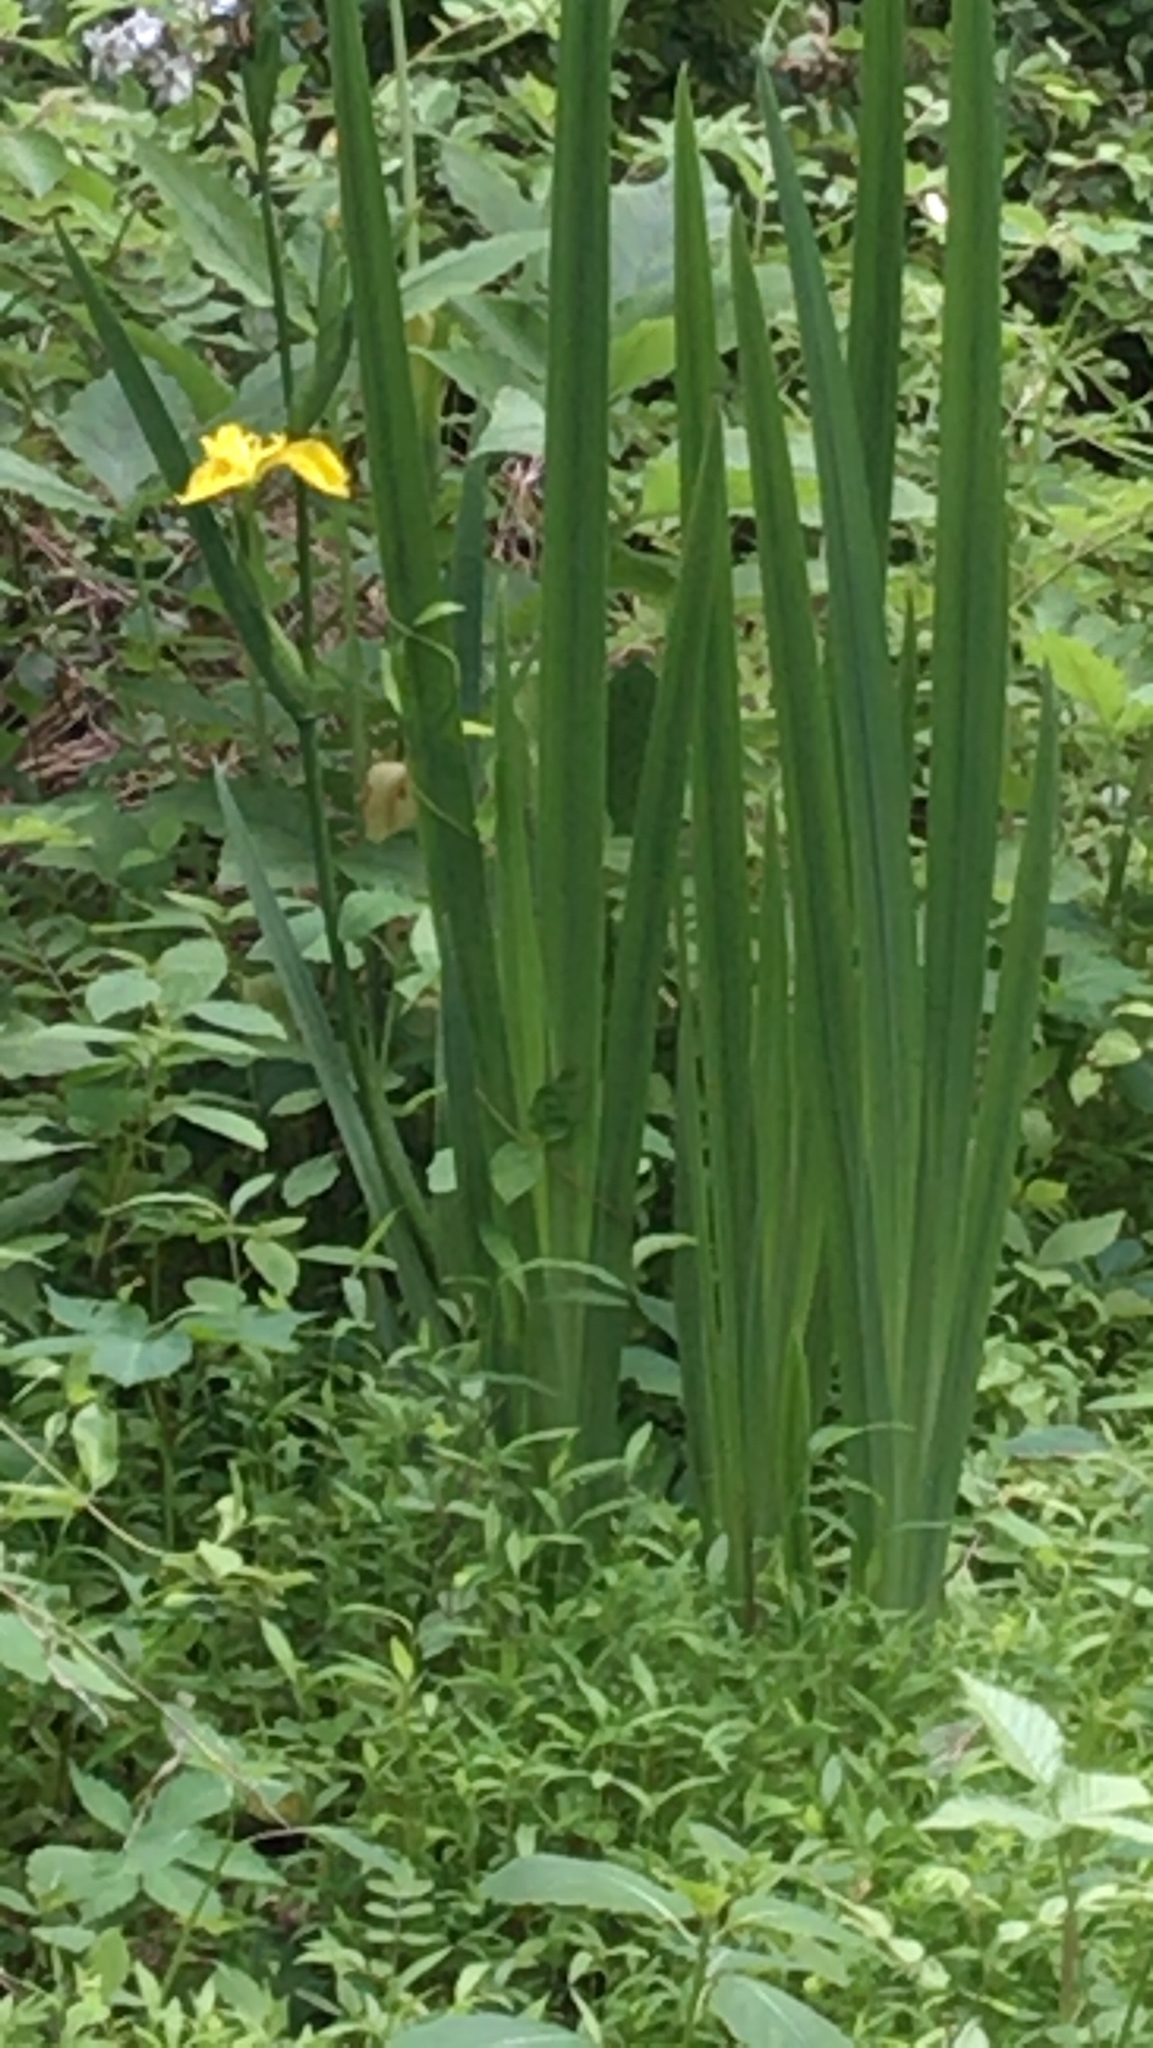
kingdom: Plantae
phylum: Tracheophyta
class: Liliopsida
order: Asparagales
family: Iridaceae
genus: Iris
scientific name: Iris pseudacorus
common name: Yellow flag
